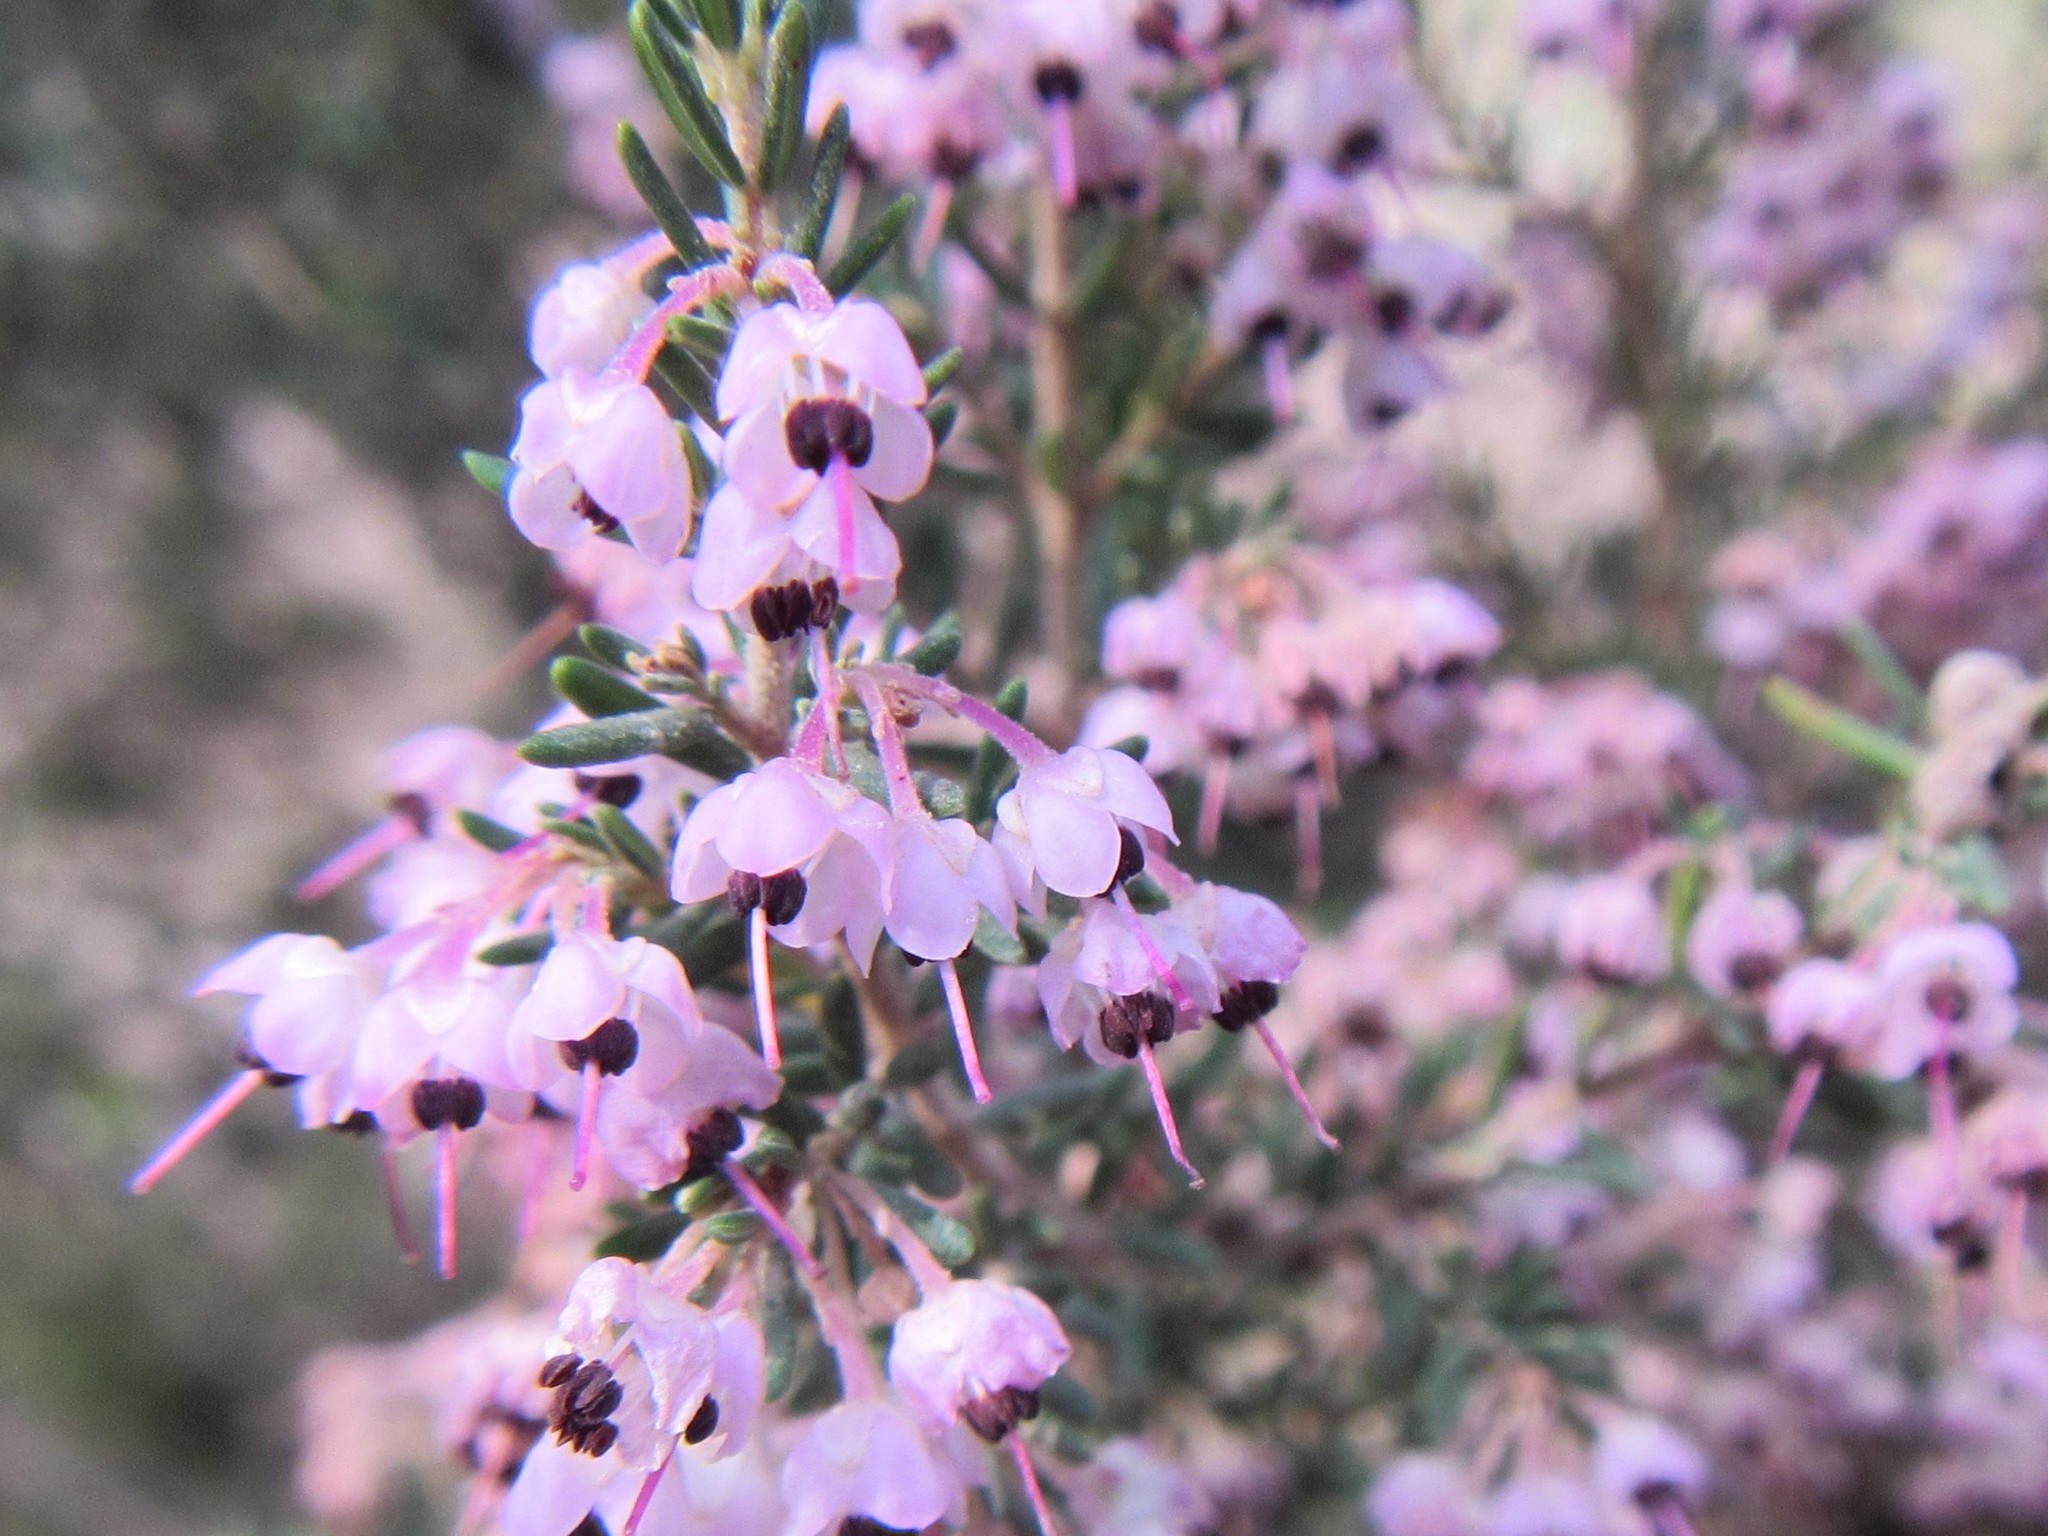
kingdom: Plantae
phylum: Tracheophyta
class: Magnoliopsida
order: Ericales
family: Ericaceae
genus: Erica
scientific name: Erica canaliculata
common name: Hairy grey heather
